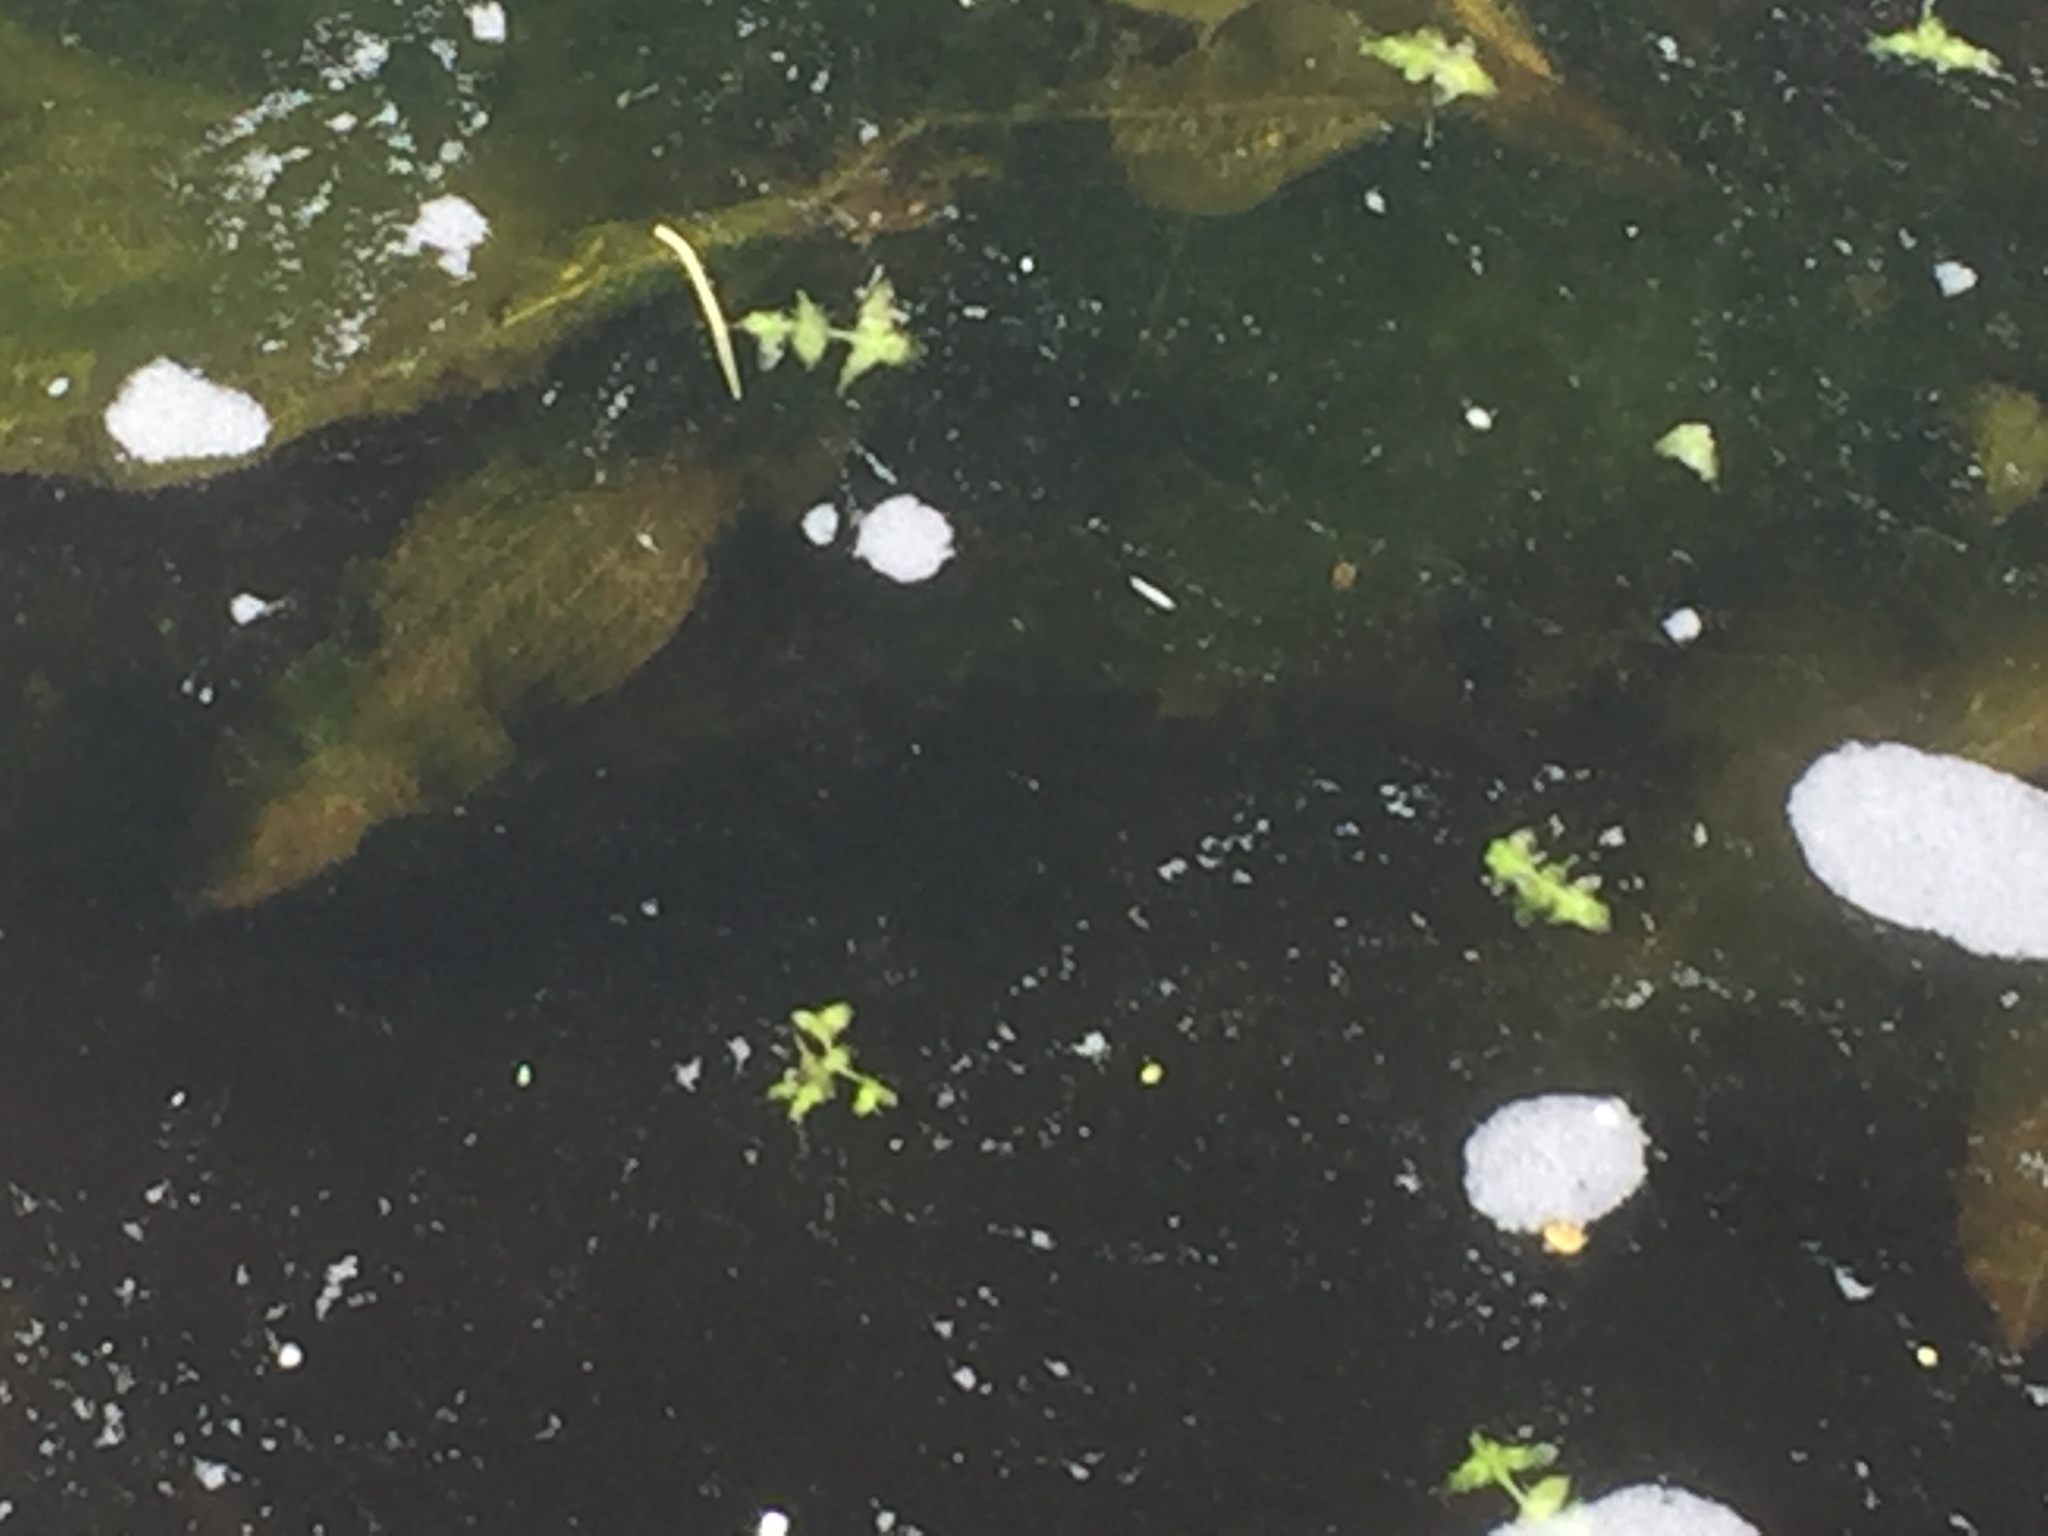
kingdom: Plantae
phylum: Tracheophyta
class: Liliopsida
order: Alismatales
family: Potamogetonaceae
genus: Potamogeton
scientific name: Potamogeton lucens
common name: Shining pondweed
